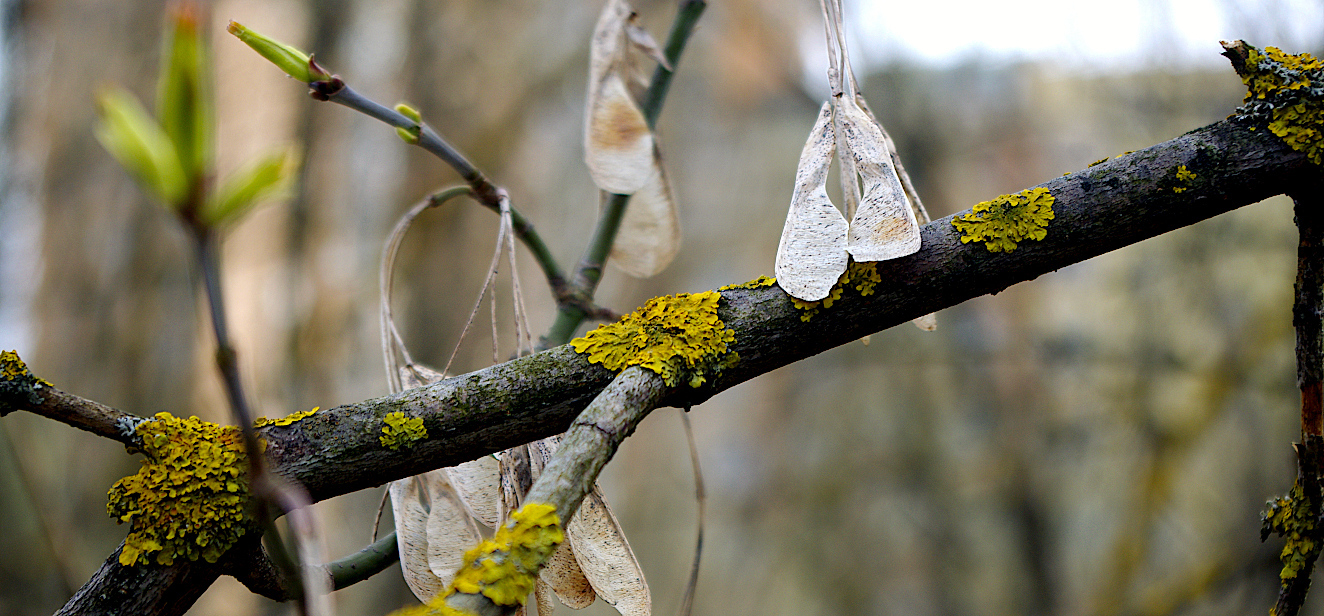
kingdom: Plantae
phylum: Tracheophyta
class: Magnoliopsida
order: Sapindales
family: Sapindaceae
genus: Acer
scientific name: Acer negundo
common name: Ashleaf maple
